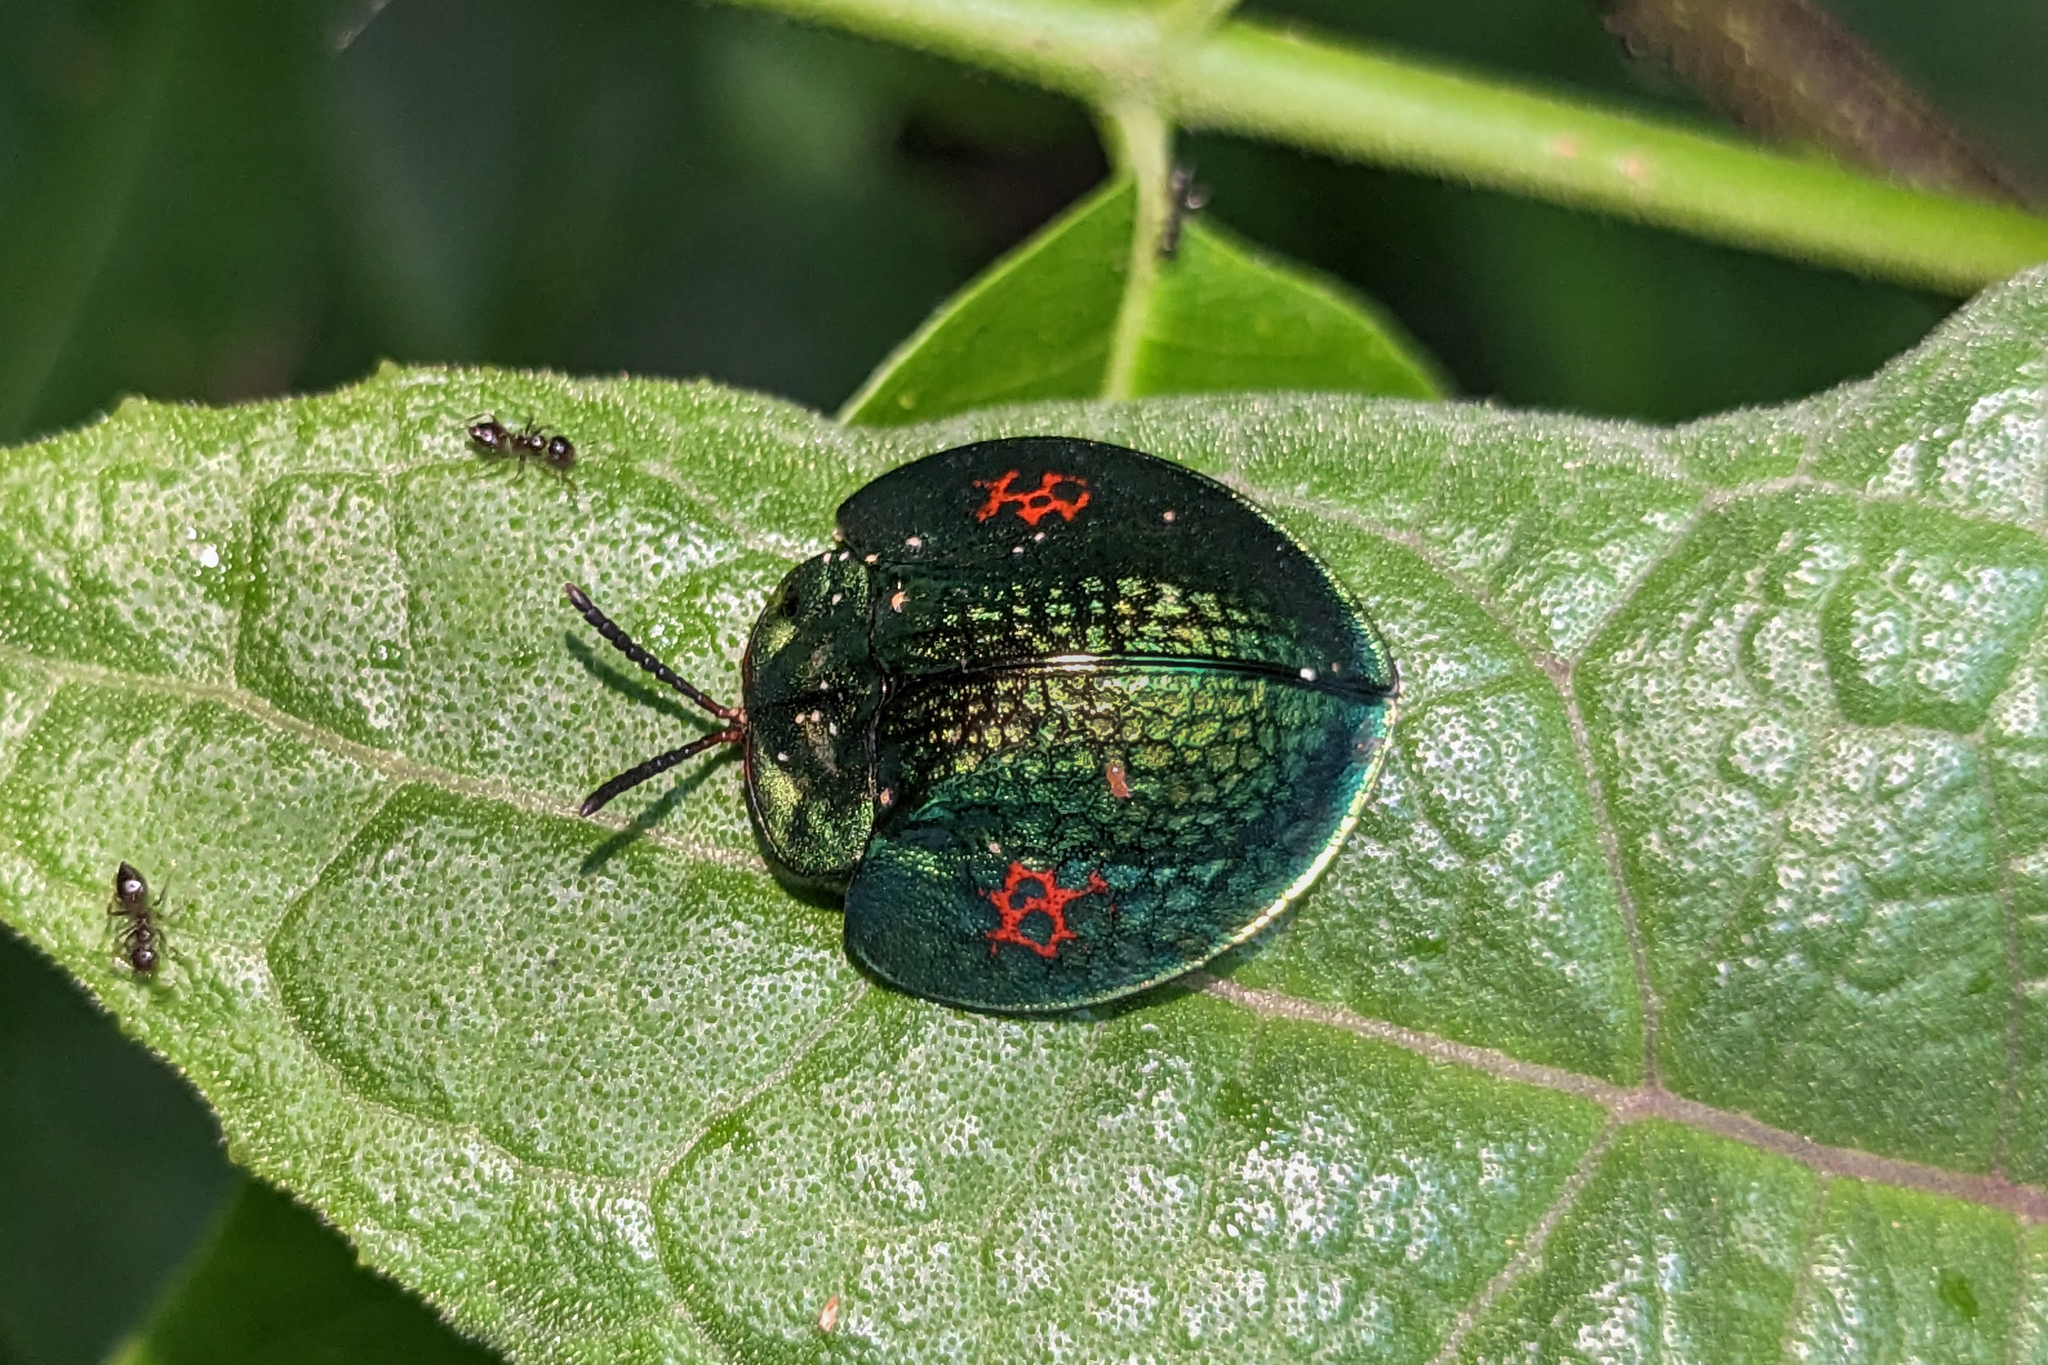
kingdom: Animalia
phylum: Arthropoda
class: Insecta
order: Coleoptera
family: Chrysomelidae
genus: Agenysa
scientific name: Agenysa caedemadens
